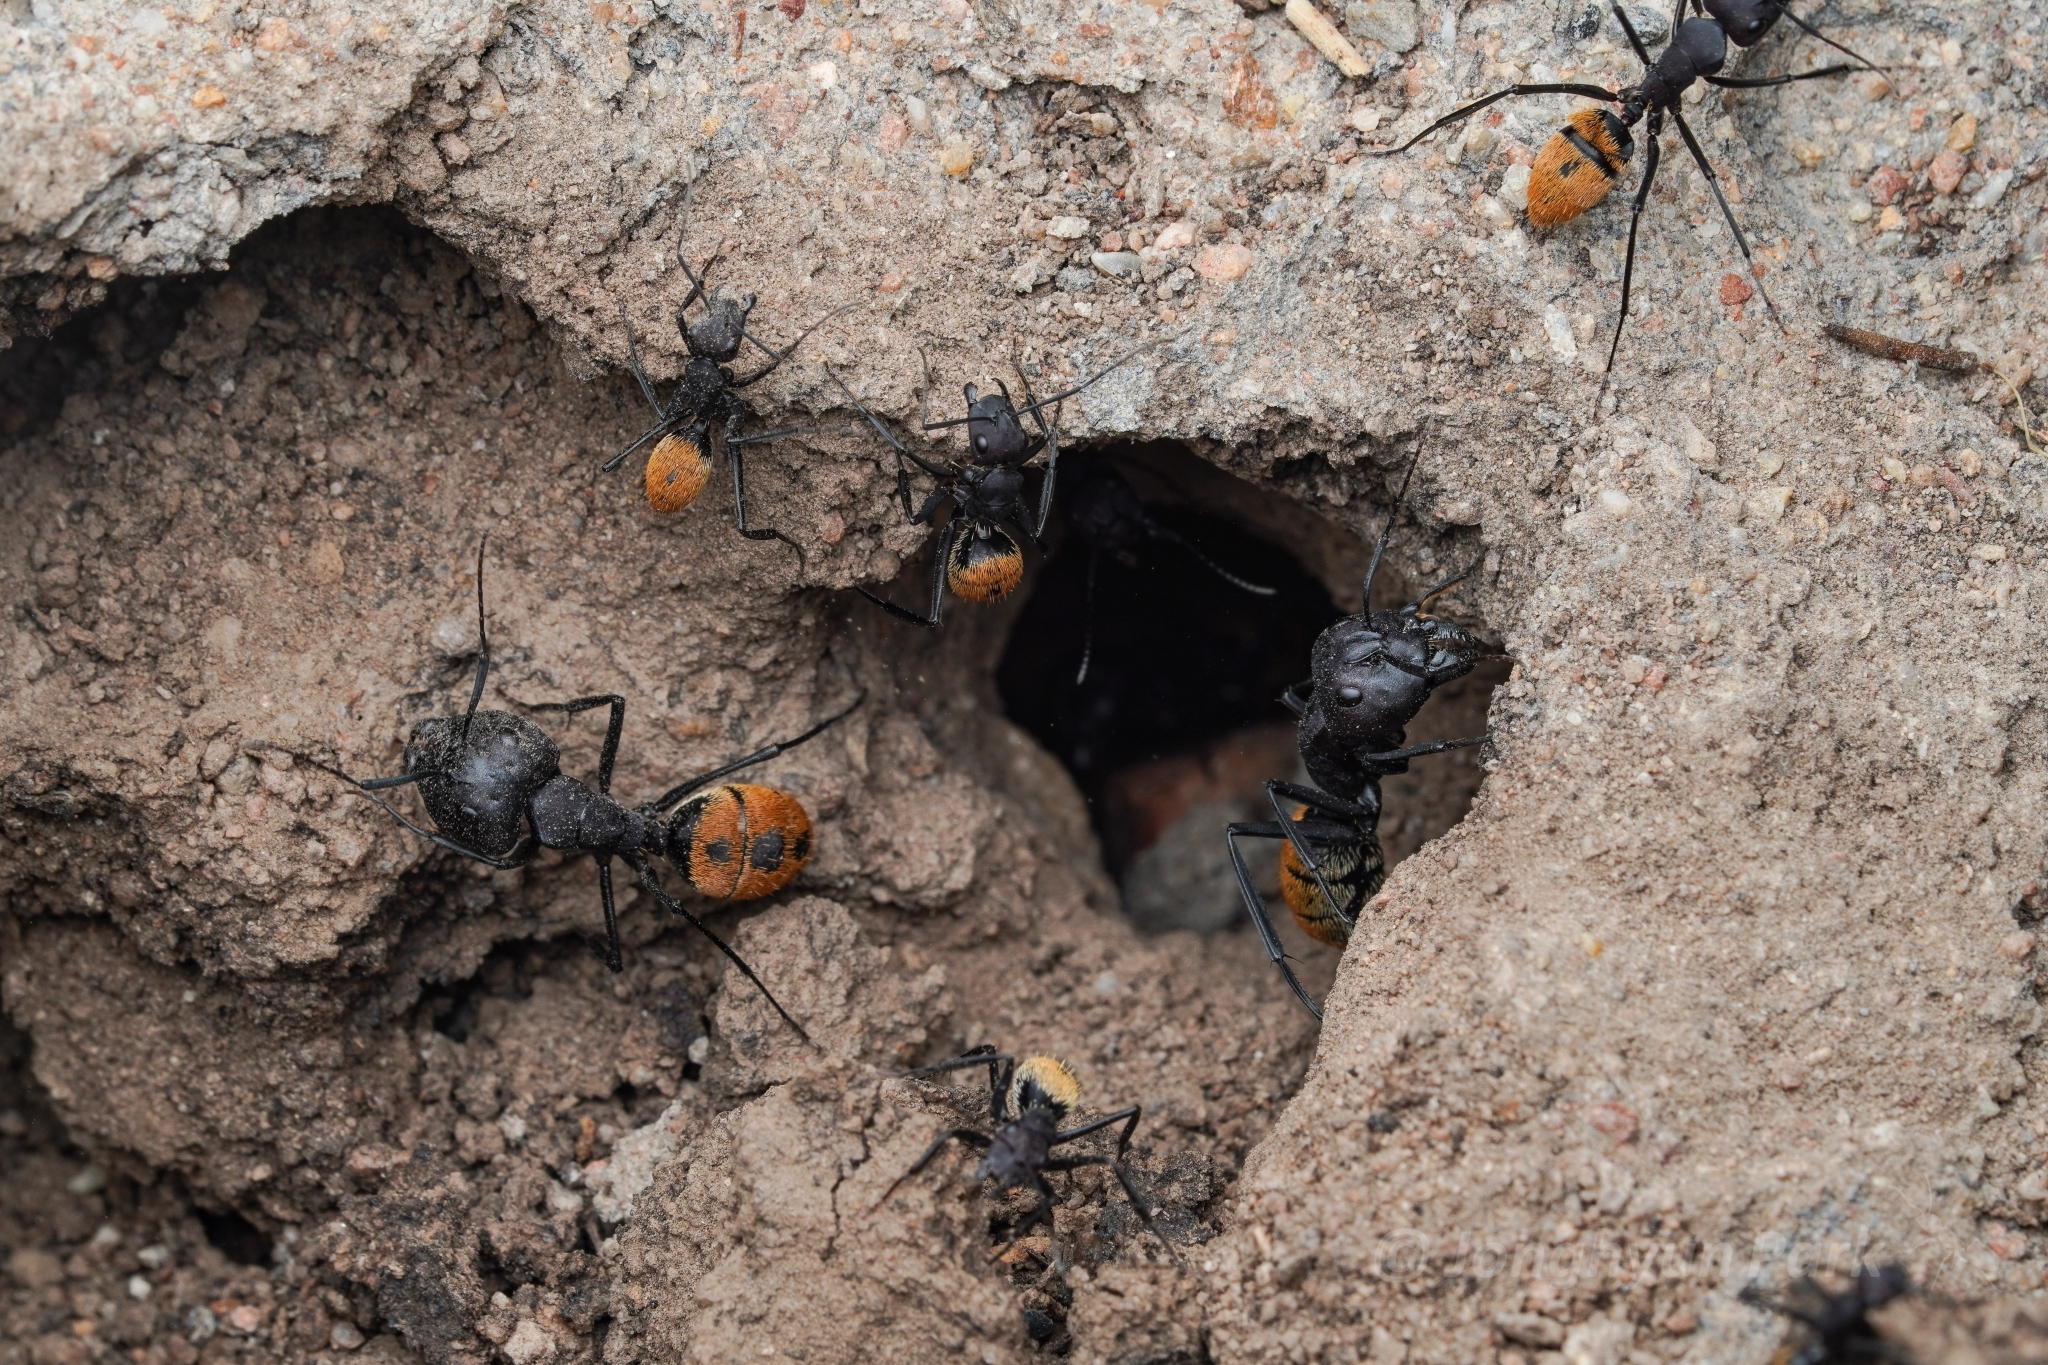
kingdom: Animalia
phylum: Arthropoda
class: Insecta
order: Hymenoptera
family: Formicidae
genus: Camponotus
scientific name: Camponotus fulvopilosus
